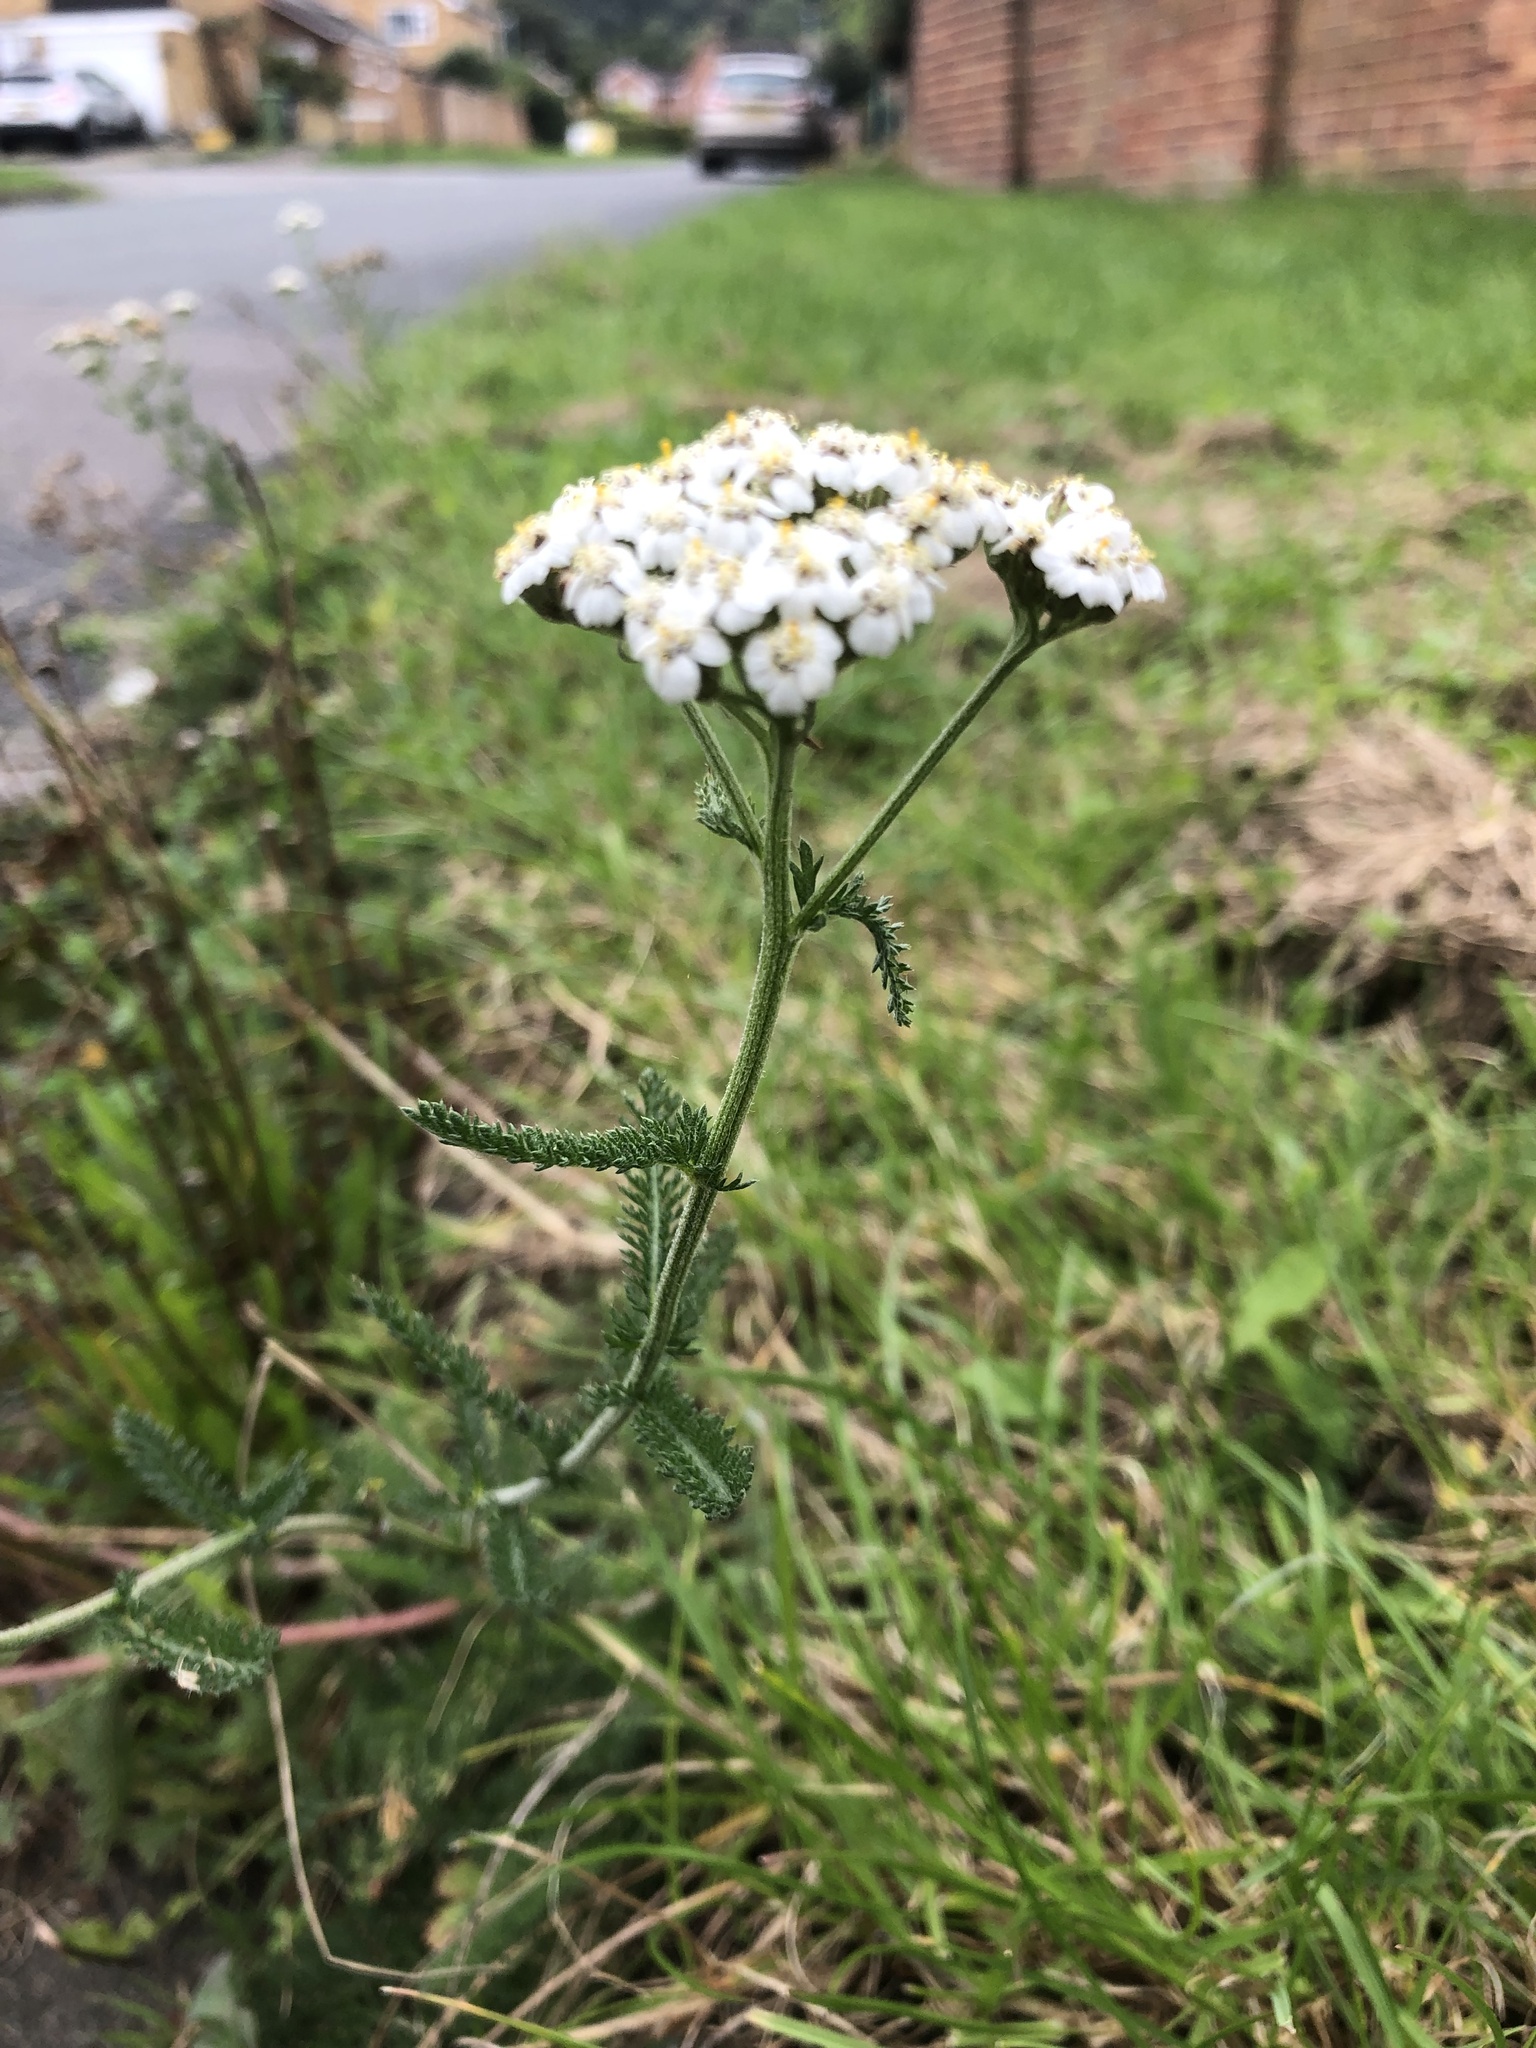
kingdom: Plantae
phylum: Tracheophyta
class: Magnoliopsida
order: Asterales
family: Asteraceae
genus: Achillea
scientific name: Achillea millefolium
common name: Yarrow
